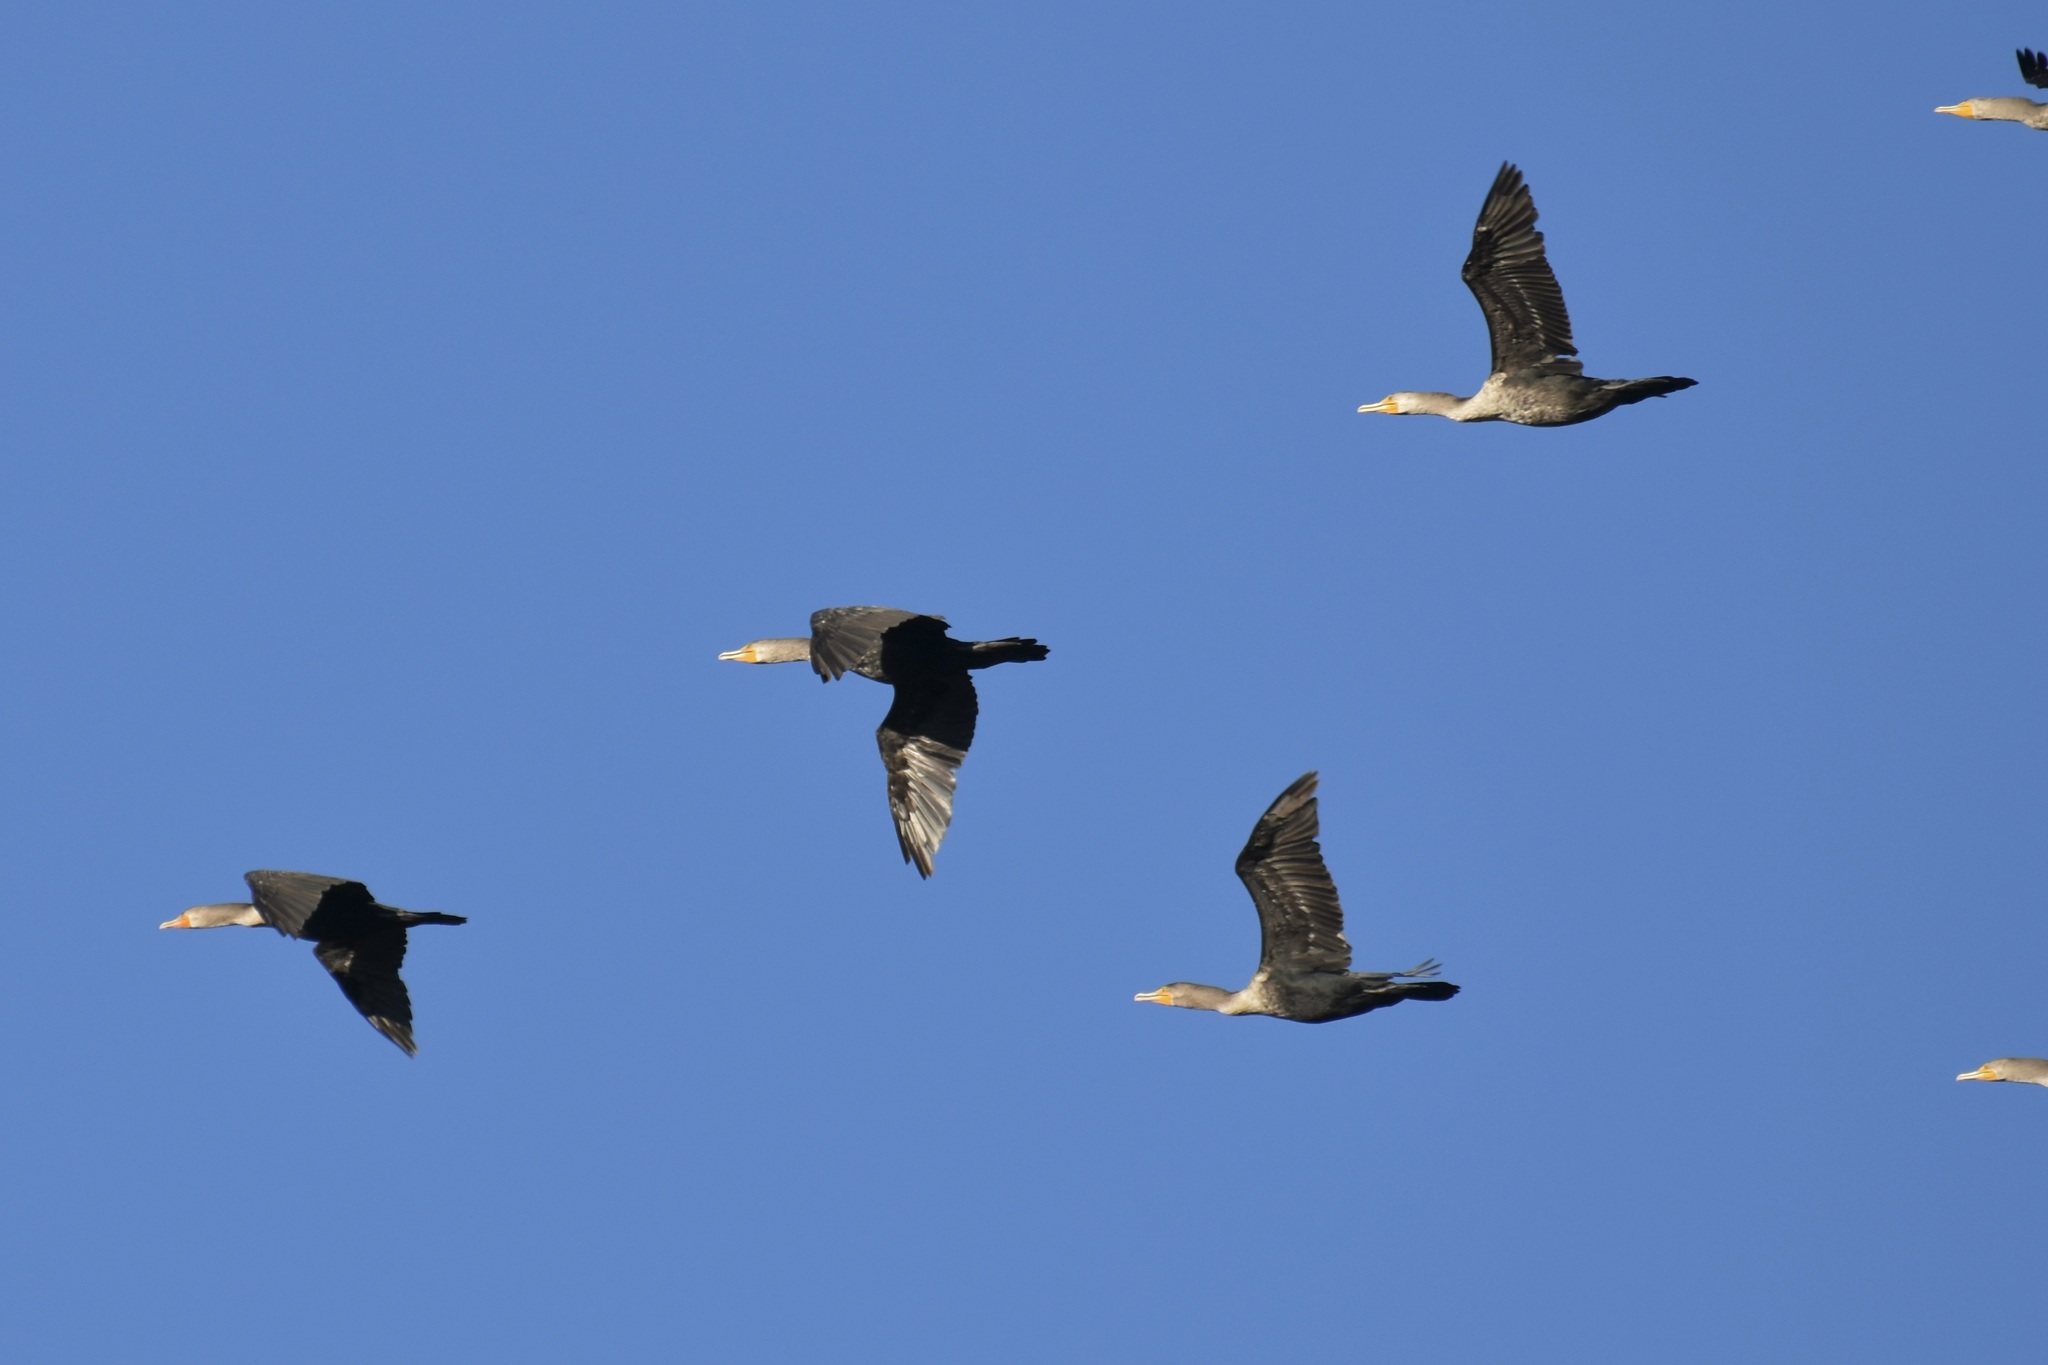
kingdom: Animalia
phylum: Chordata
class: Aves
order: Suliformes
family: Phalacrocoracidae
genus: Phalacrocorax
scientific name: Phalacrocorax auritus
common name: Double-crested cormorant
